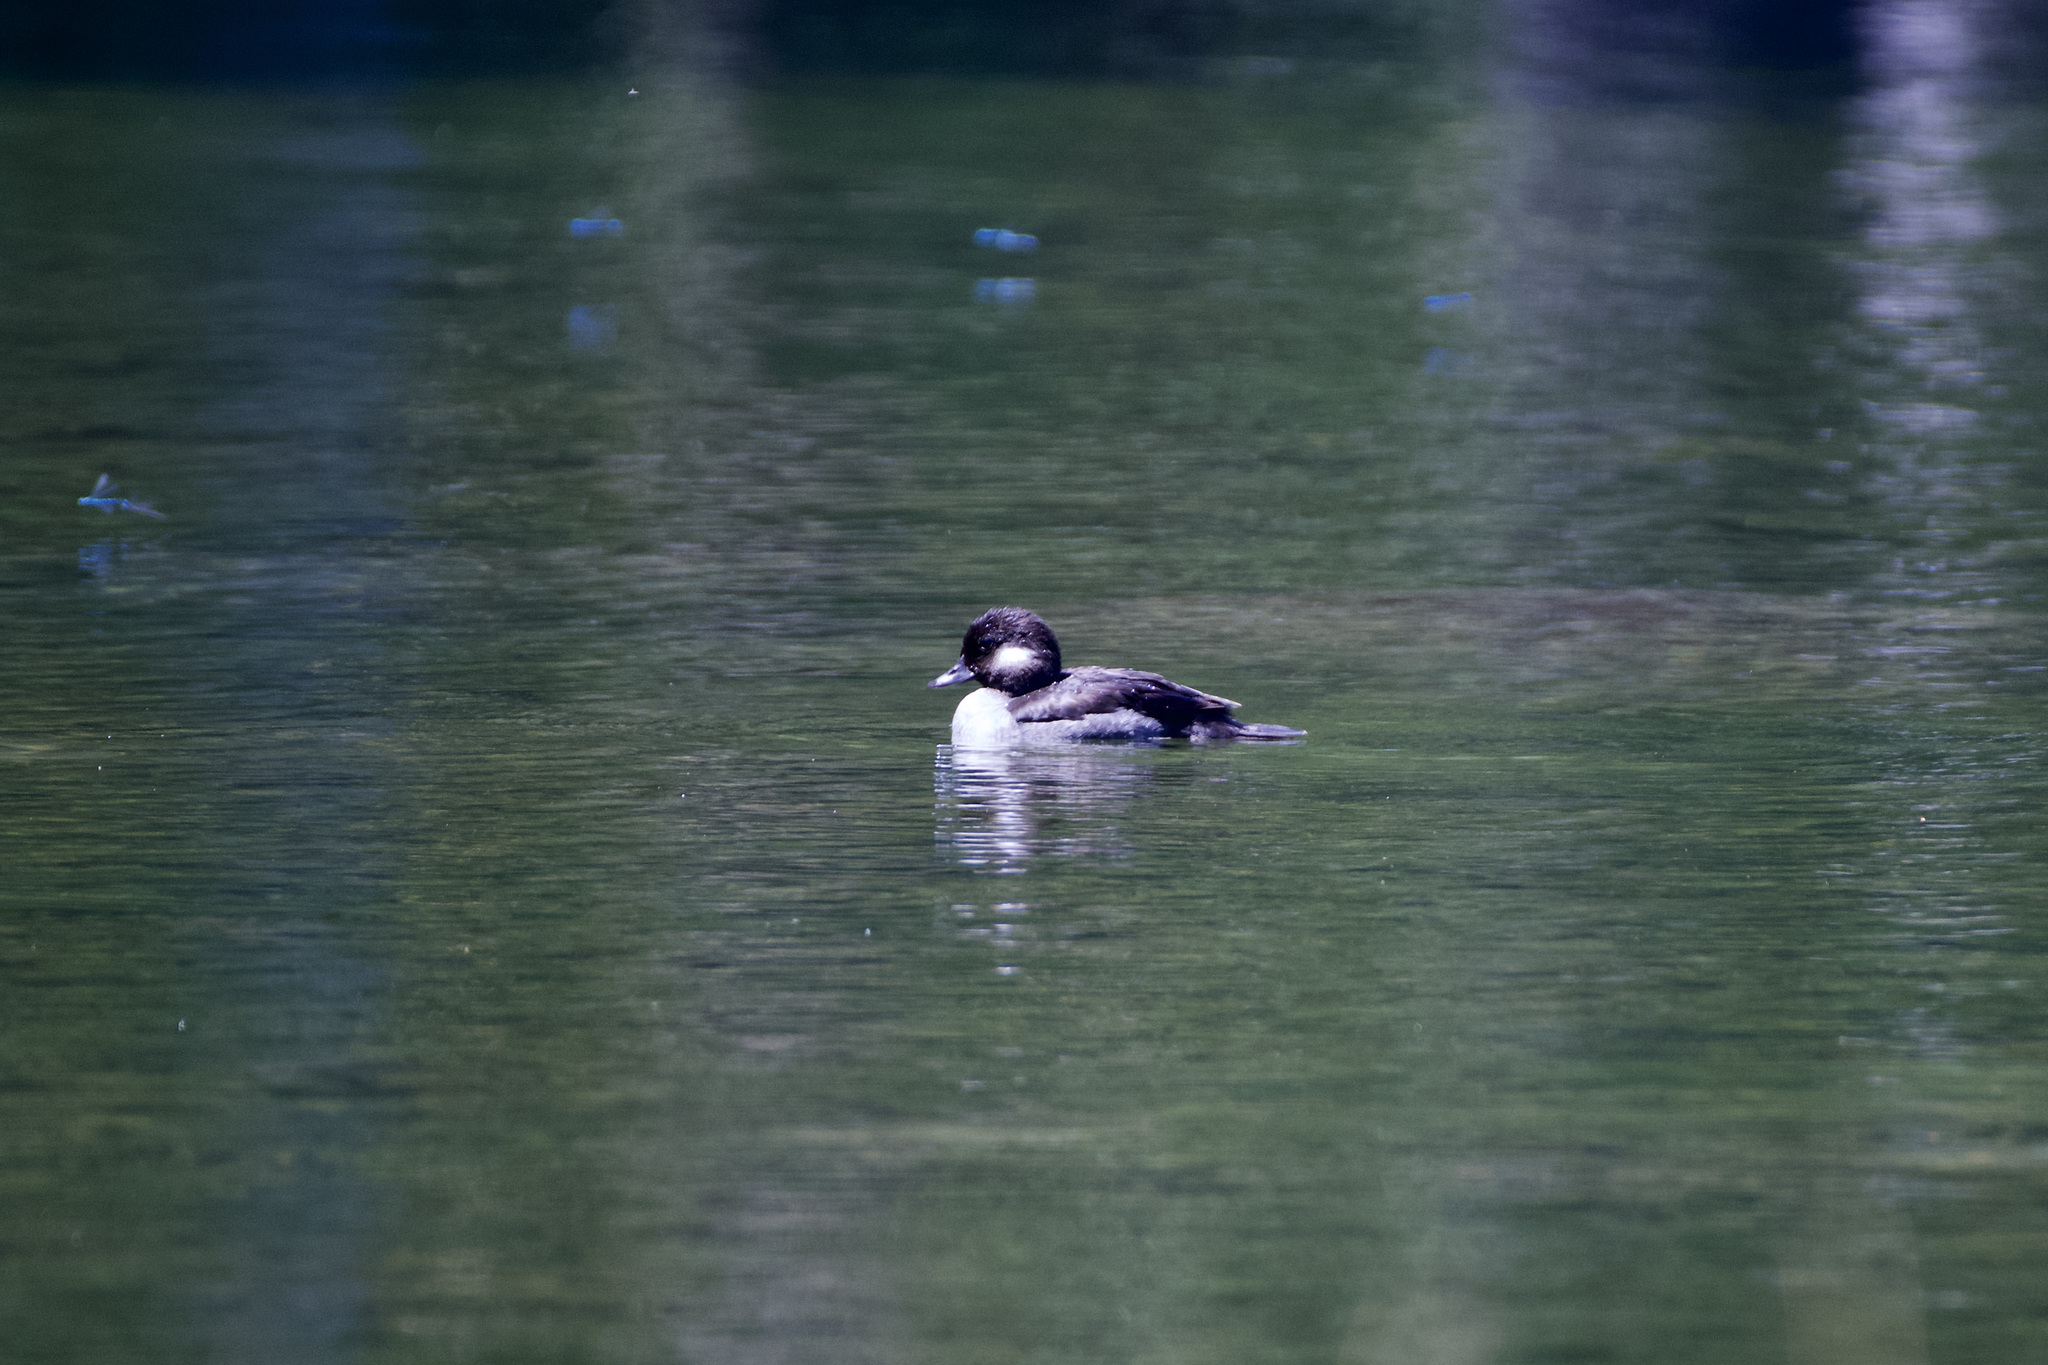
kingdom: Animalia
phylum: Chordata
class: Aves
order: Anseriformes
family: Anatidae
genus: Bucephala
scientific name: Bucephala albeola
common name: Bufflehead
